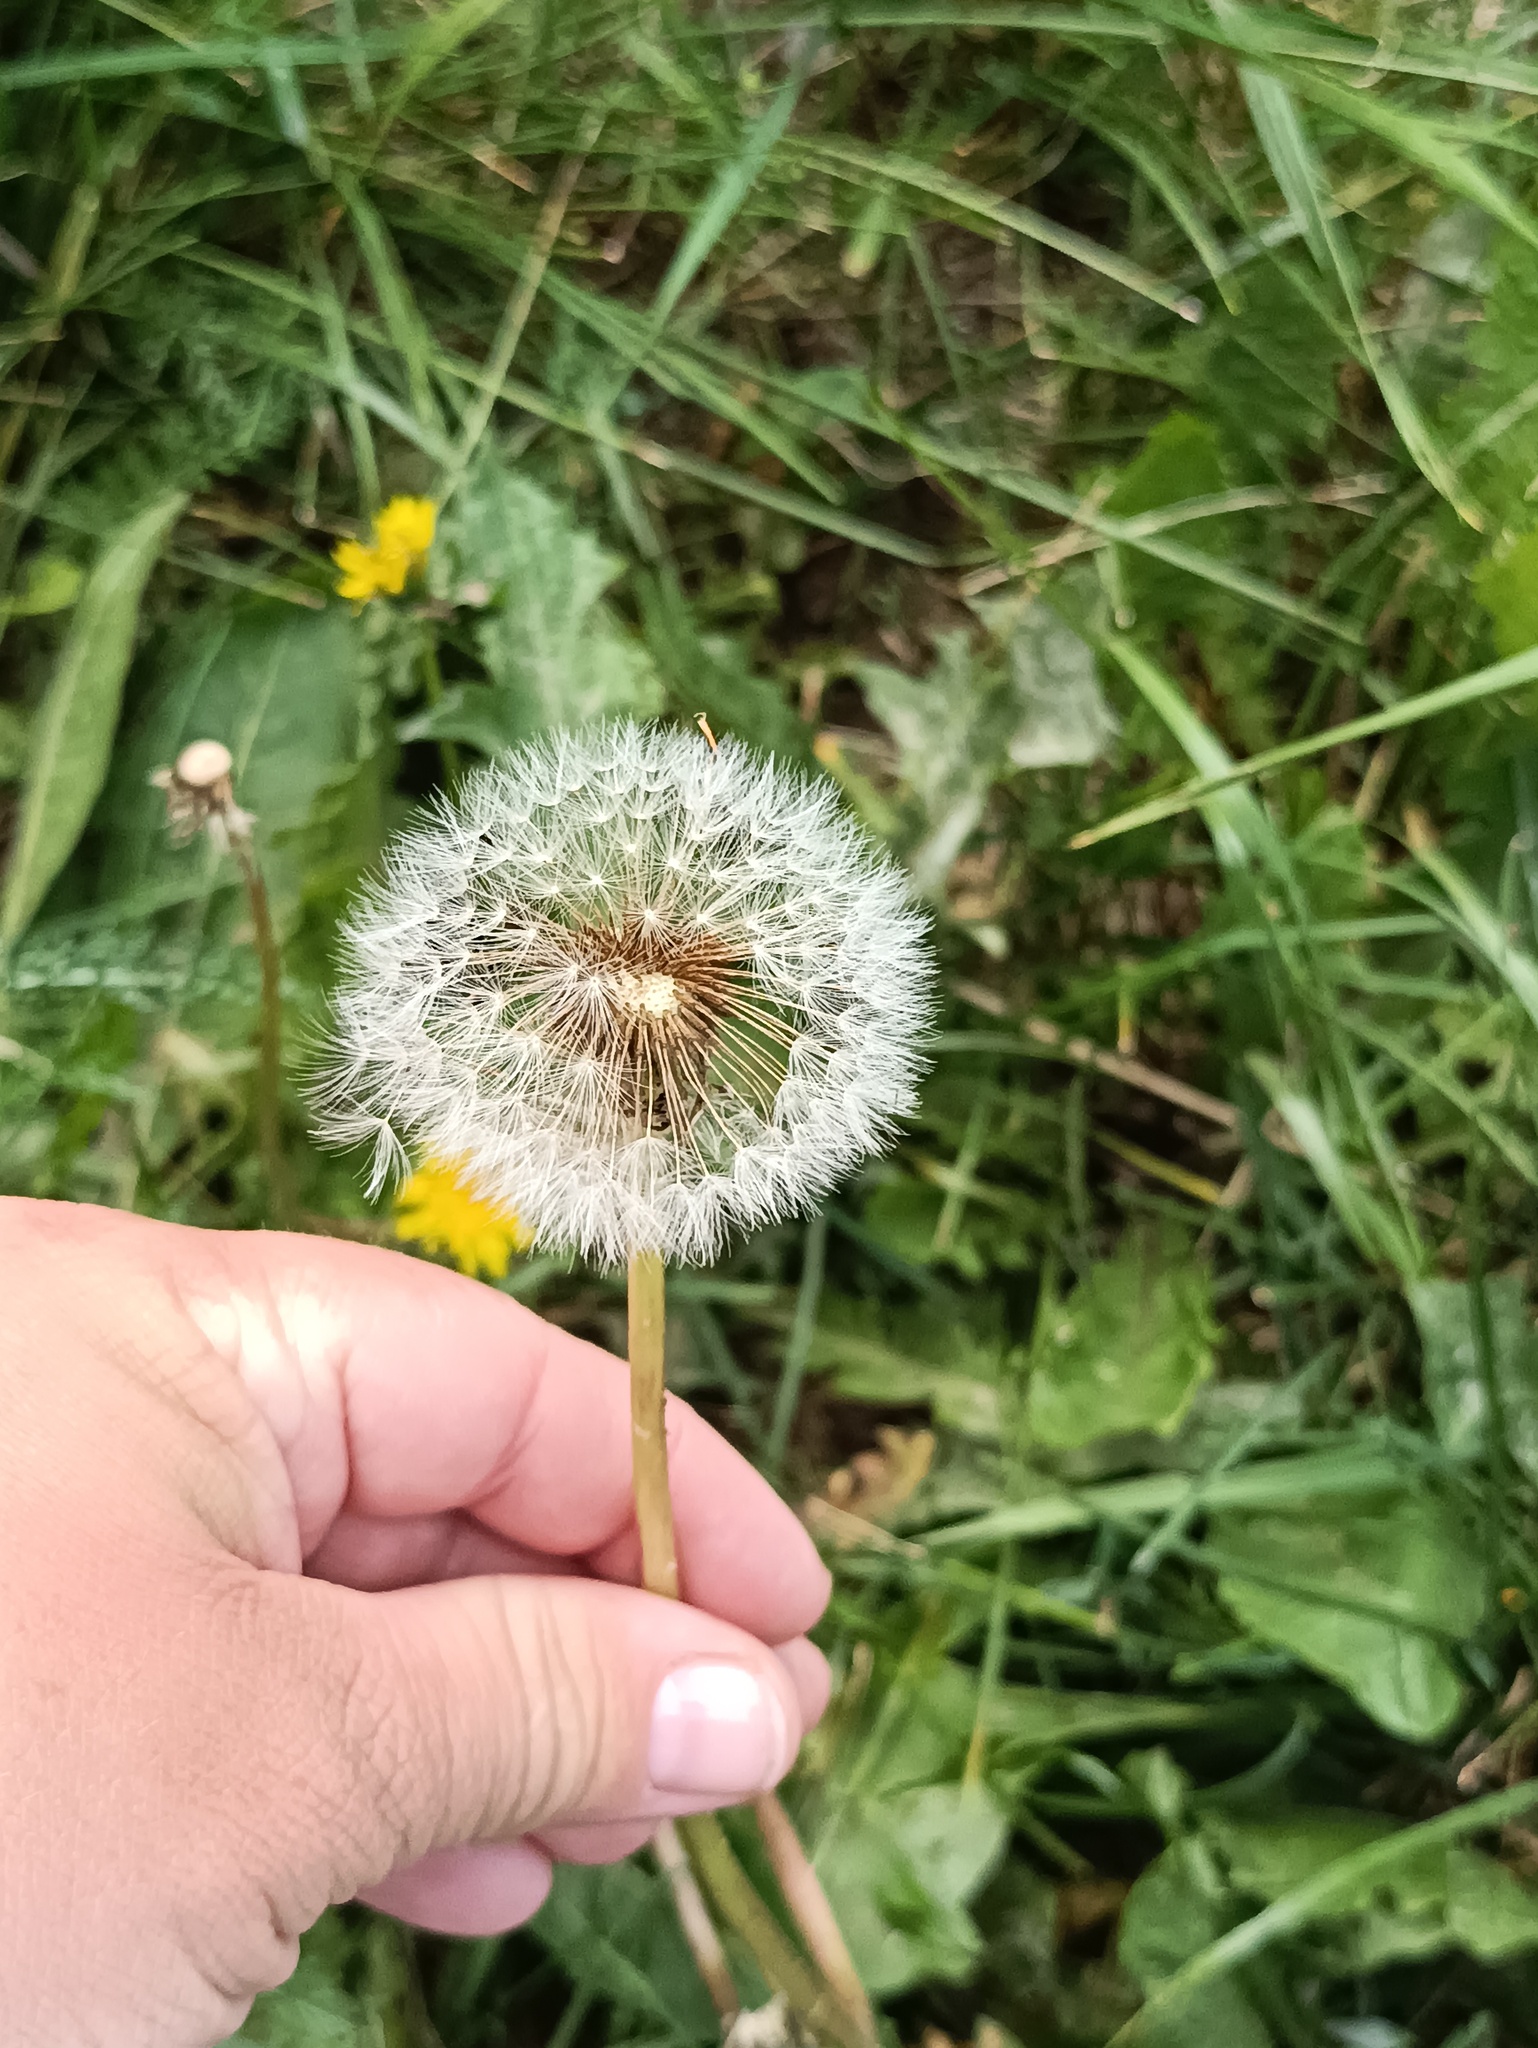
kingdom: Plantae
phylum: Tracheophyta
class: Magnoliopsida
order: Asterales
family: Asteraceae
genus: Taraxacum
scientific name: Taraxacum officinale
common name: Common dandelion
